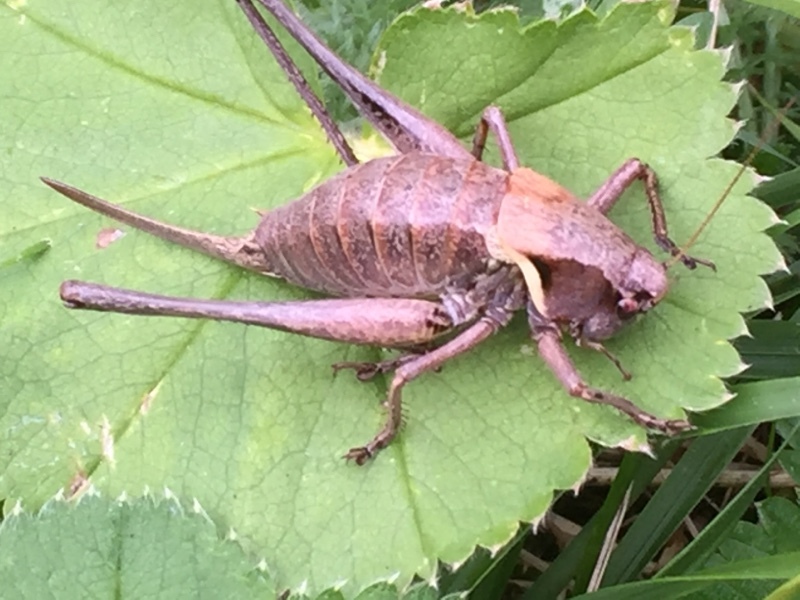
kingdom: Animalia
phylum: Arthropoda
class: Insecta
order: Orthoptera
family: Tettigoniidae
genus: Pholidoptera
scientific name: Pholidoptera aptera
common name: Alpine dark bush-cricket
